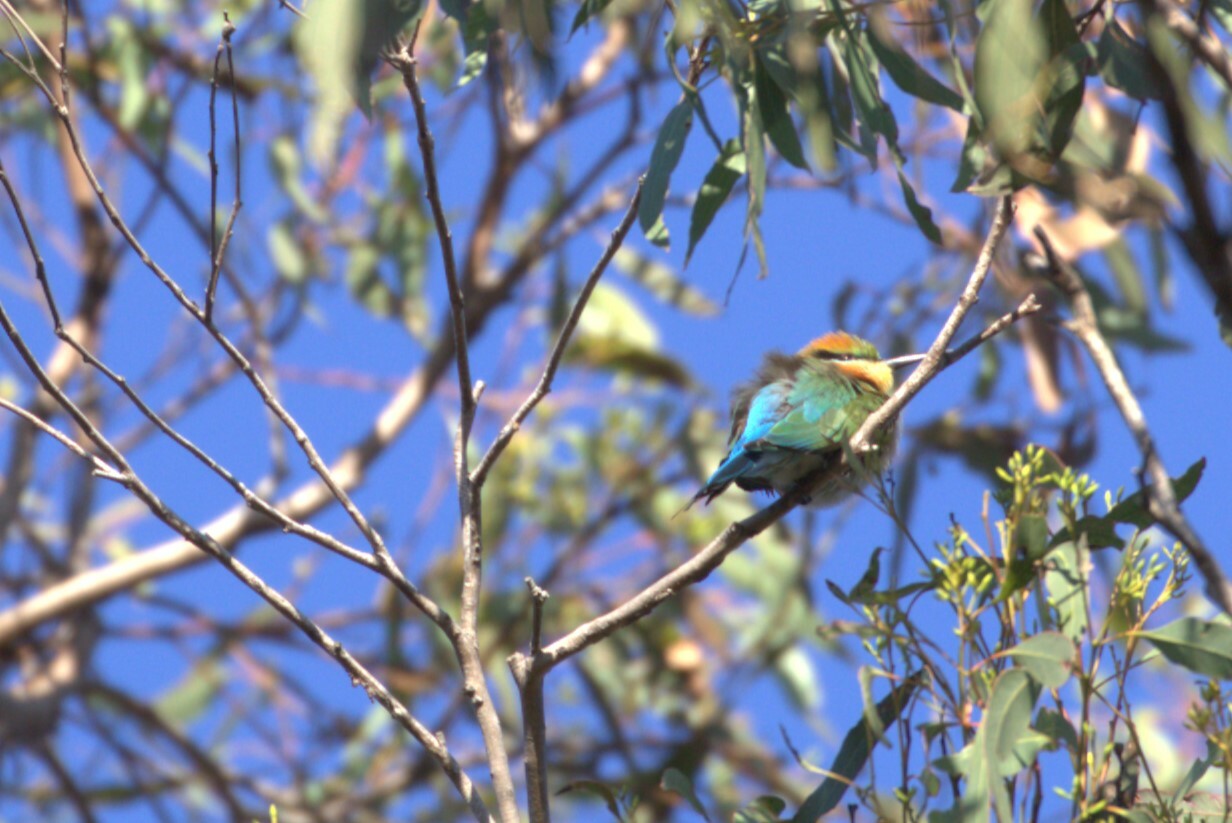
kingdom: Animalia
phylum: Chordata
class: Aves
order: Coraciiformes
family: Meropidae
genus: Merops
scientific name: Merops ornatus
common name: Rainbow bee-eater
